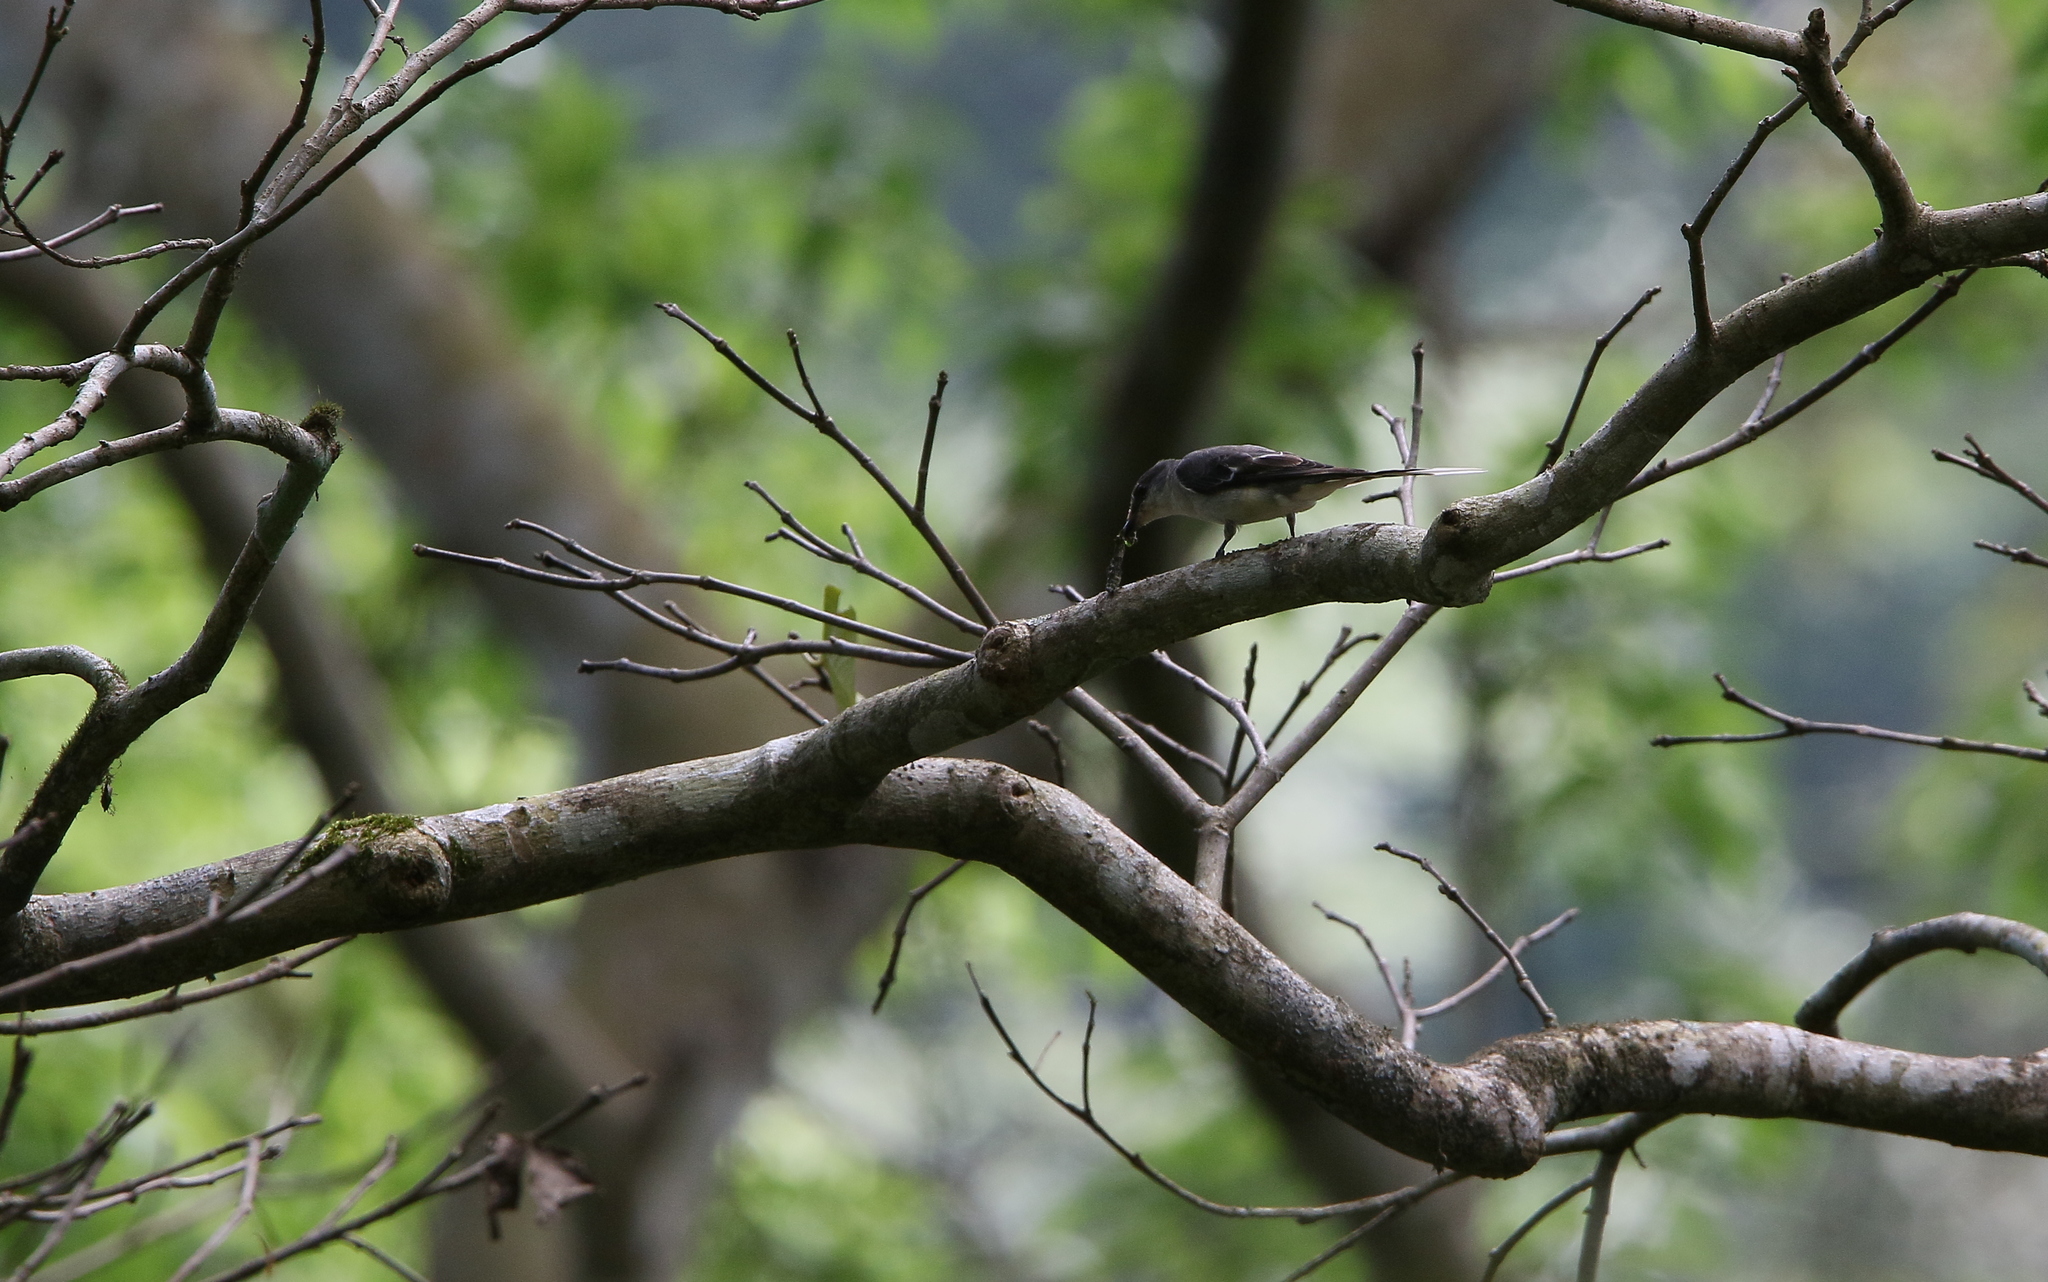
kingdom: Animalia
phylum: Chordata
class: Aves
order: Passeriformes
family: Campephagidae
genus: Pericrocotus
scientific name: Pericrocotus divaricatus
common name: Ashy minivet
